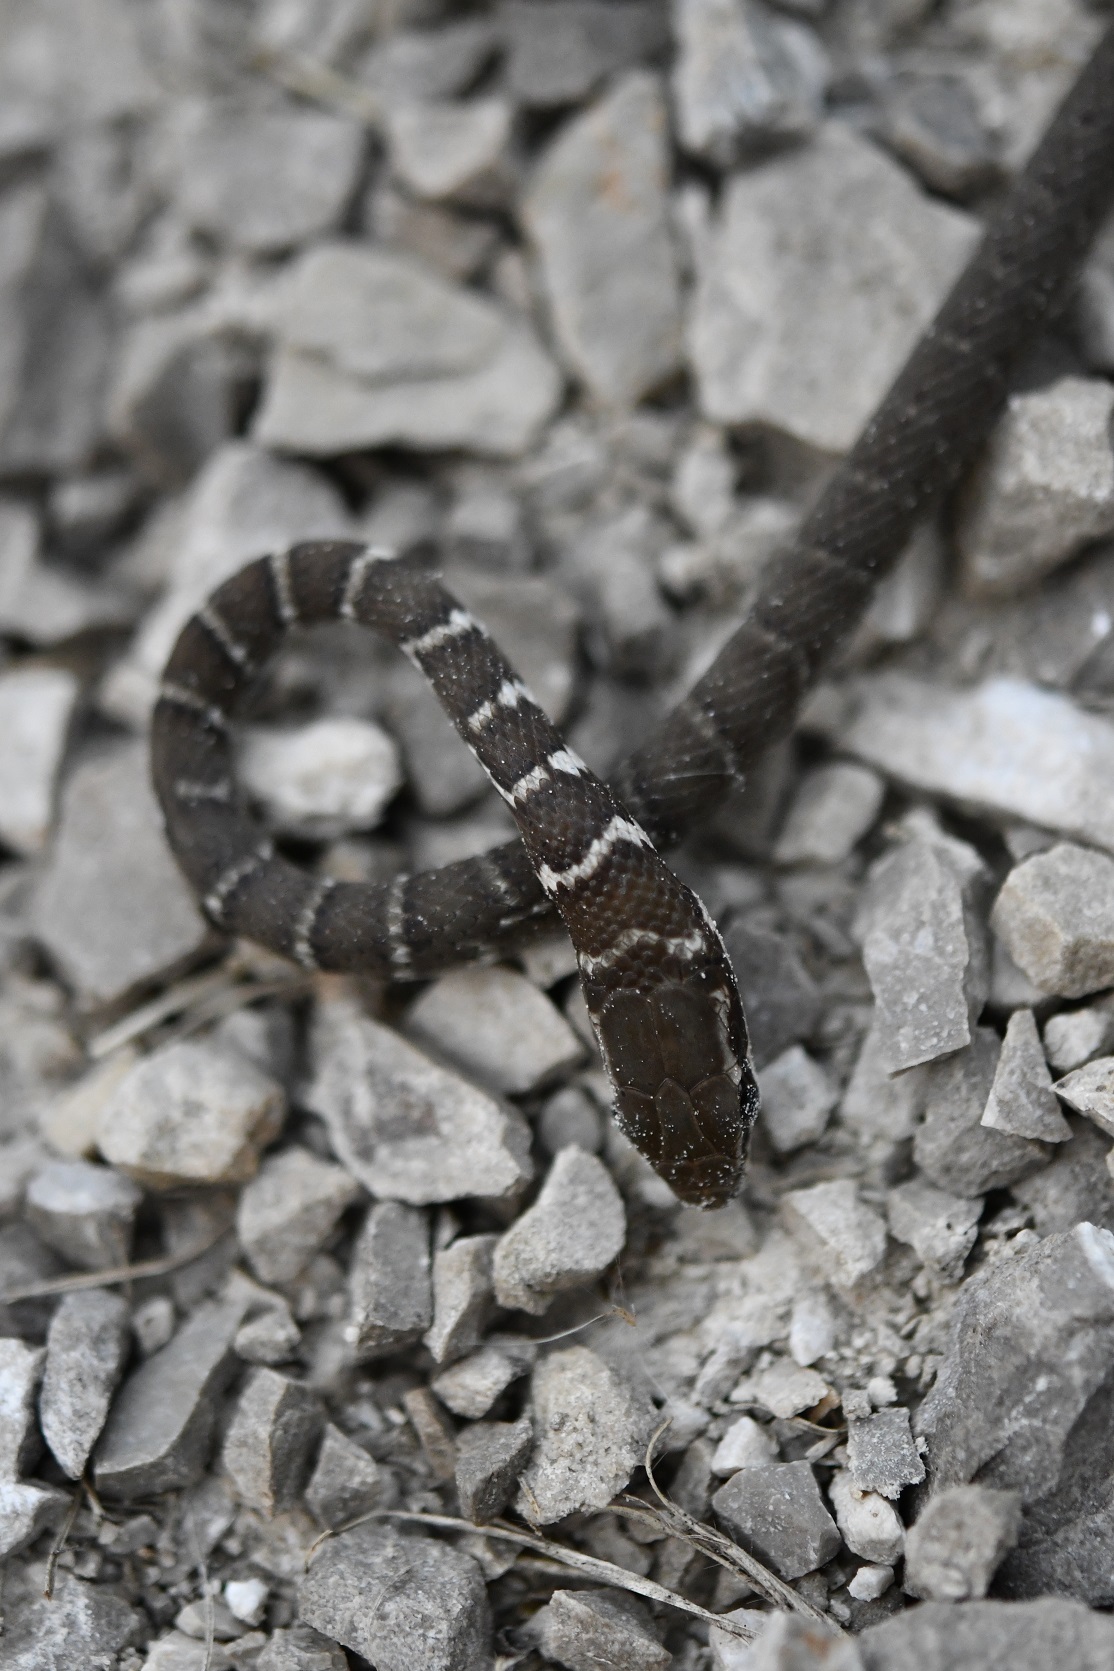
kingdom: Animalia
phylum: Chordata
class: Squamata
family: Colubridae
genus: Mastigodryas
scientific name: Mastigodryas melanolomus
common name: Salmon-bellied racer
